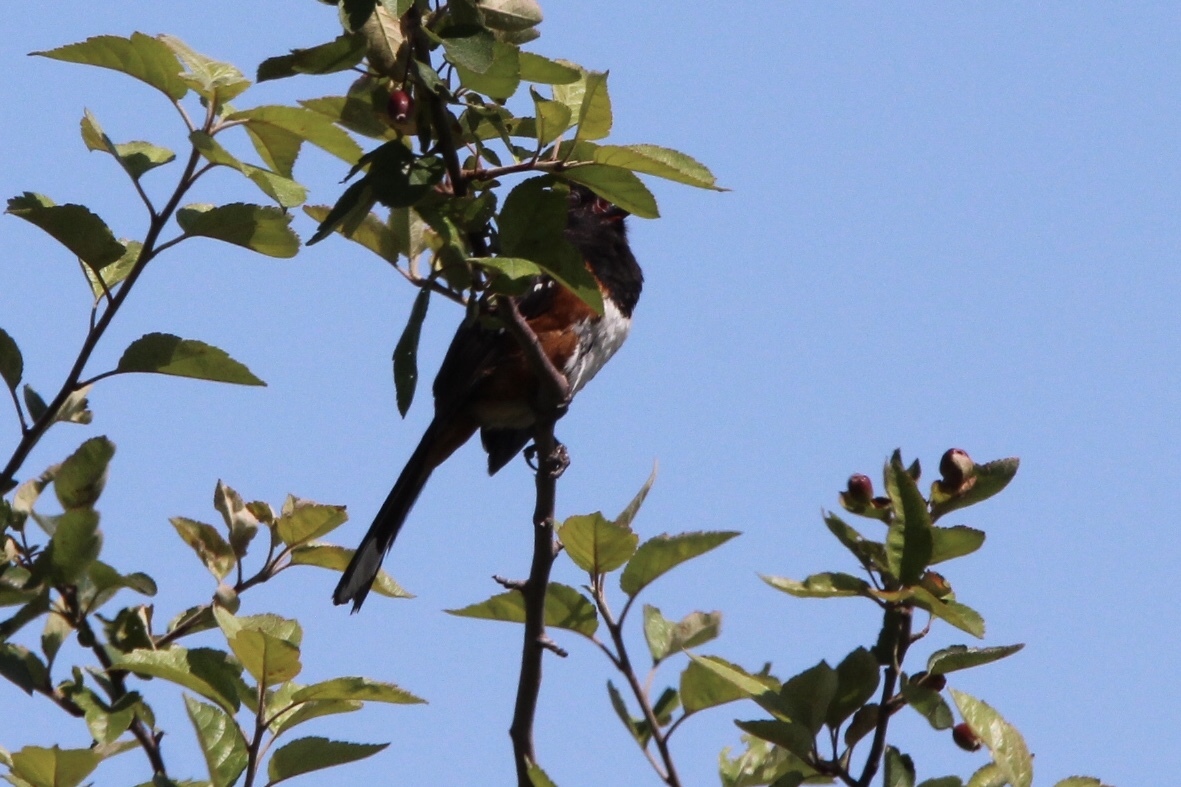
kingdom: Animalia
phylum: Chordata
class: Aves
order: Passeriformes
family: Passerellidae
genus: Pipilo
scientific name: Pipilo maculatus
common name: Spotted towhee
